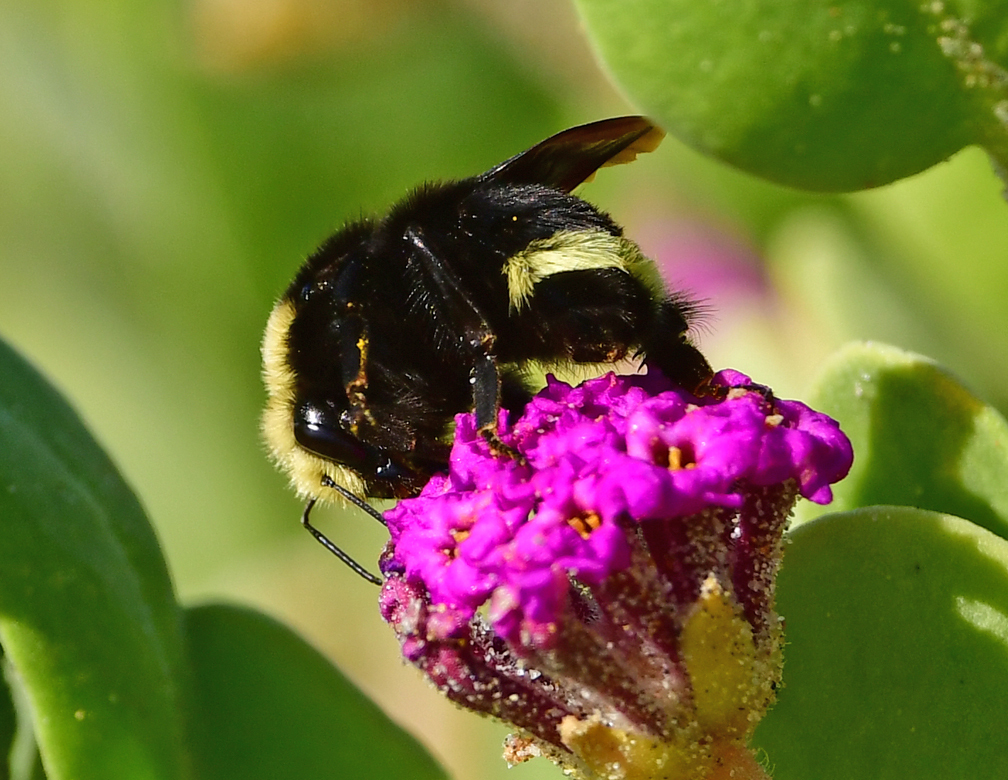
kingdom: Animalia
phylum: Arthropoda
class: Insecta
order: Hymenoptera
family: Apidae
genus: Bombus
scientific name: Bombus vosnesenskii
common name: Vosnesensky bumble bee
